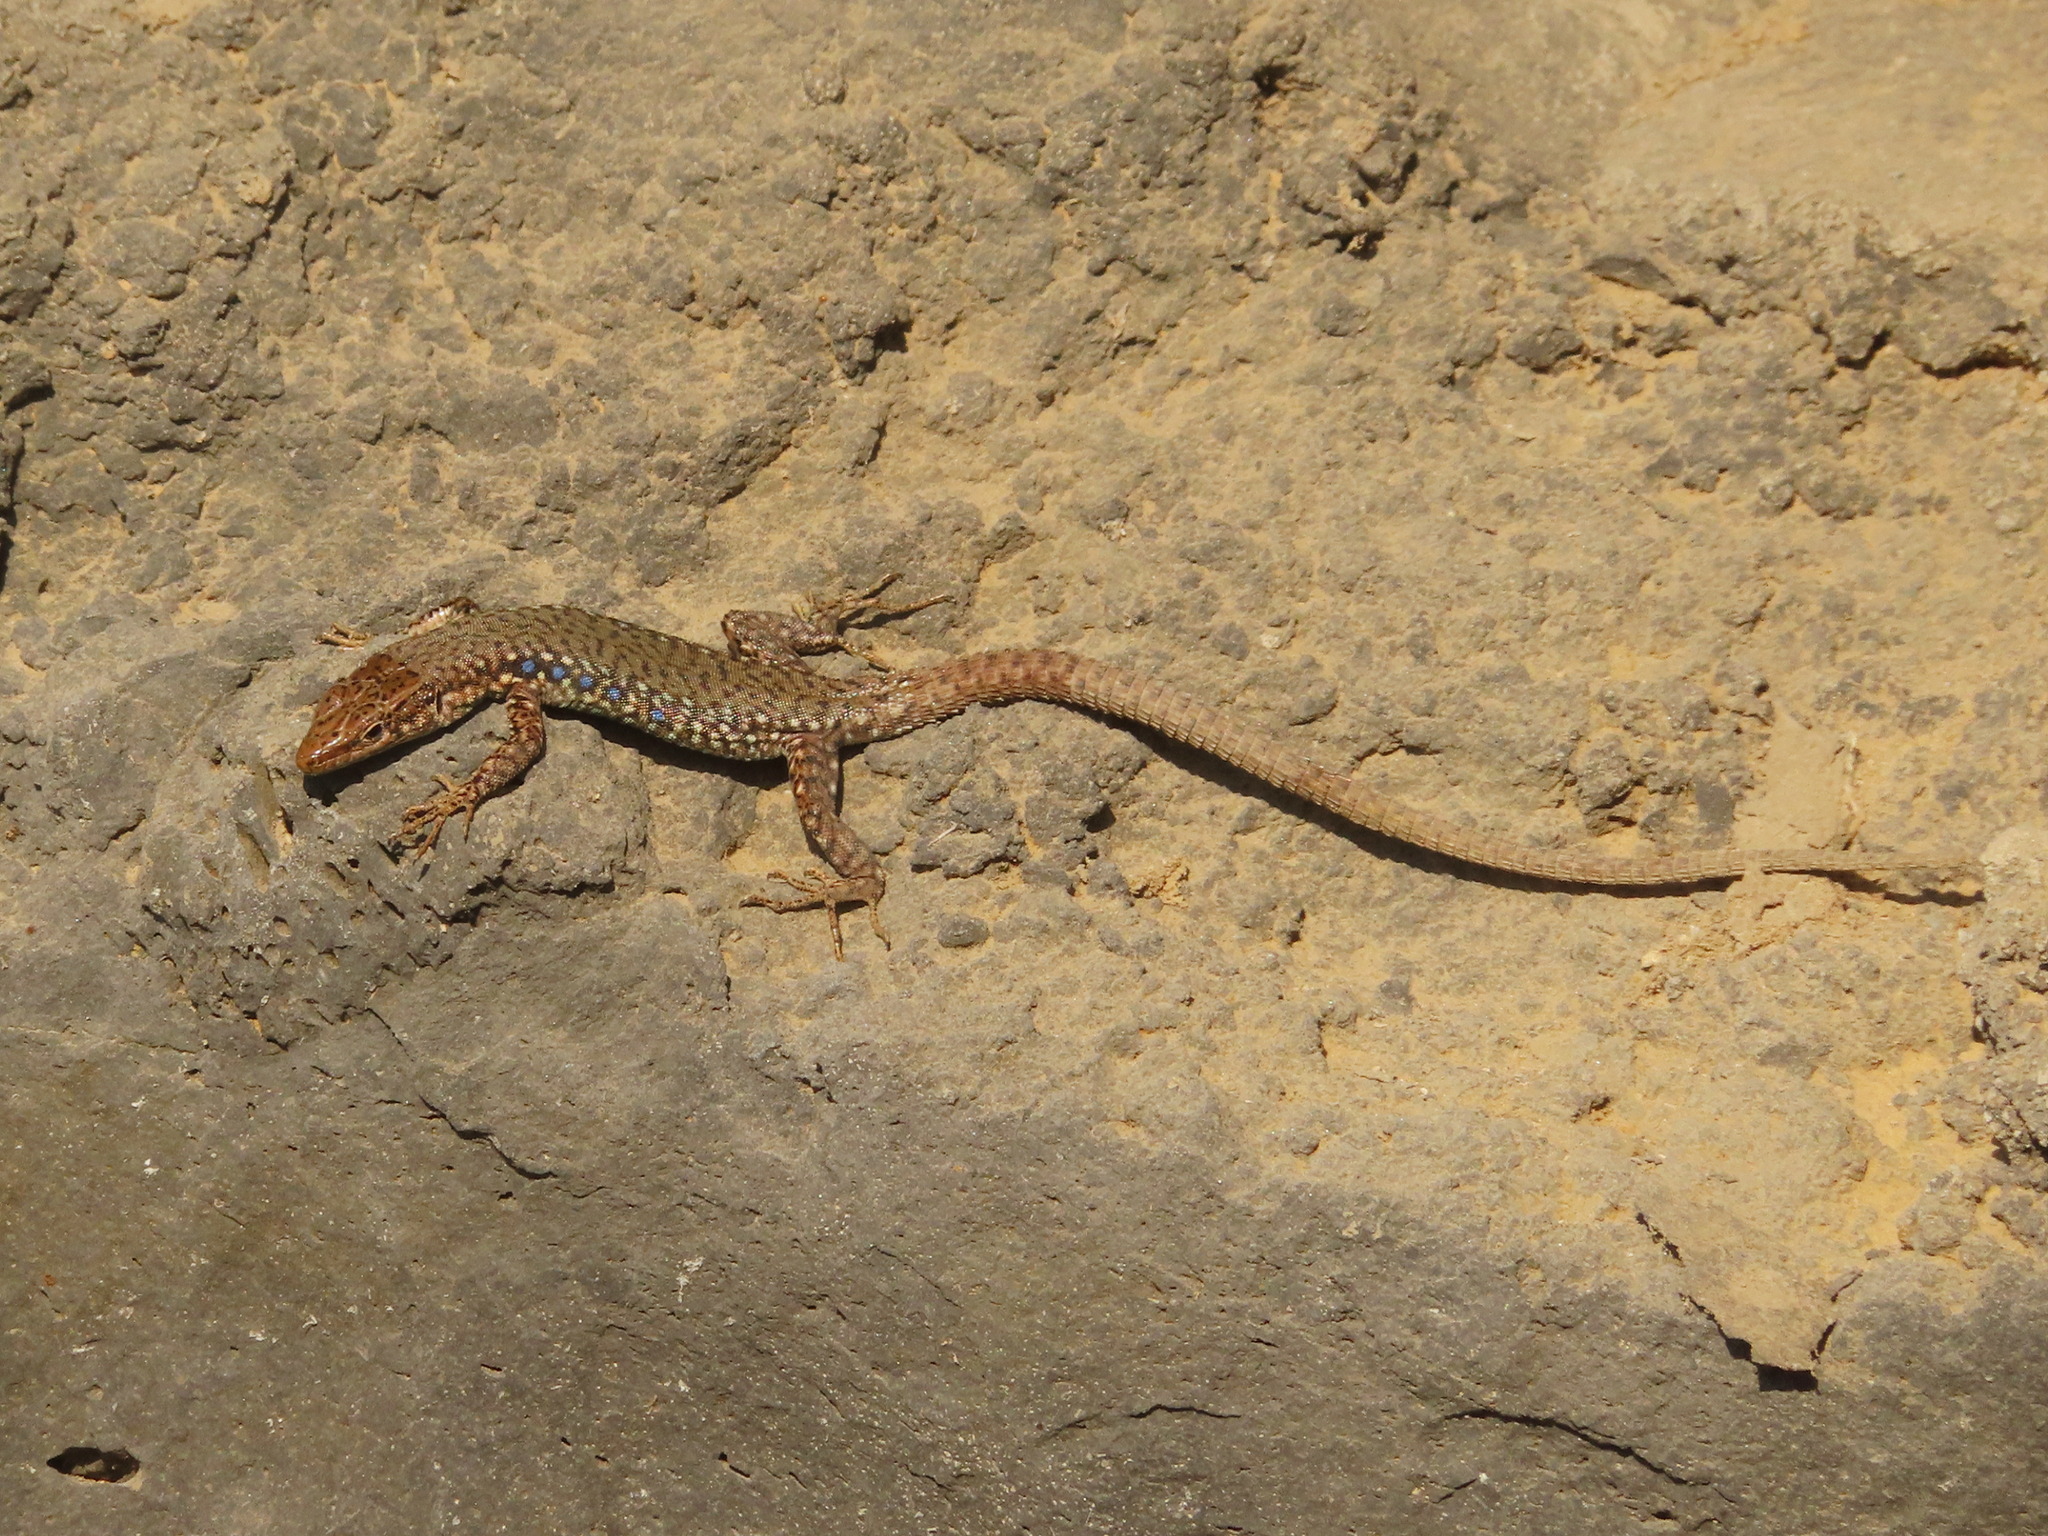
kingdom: Animalia
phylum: Chordata
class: Squamata
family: Lacertidae
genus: Darevskia
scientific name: Darevskia
